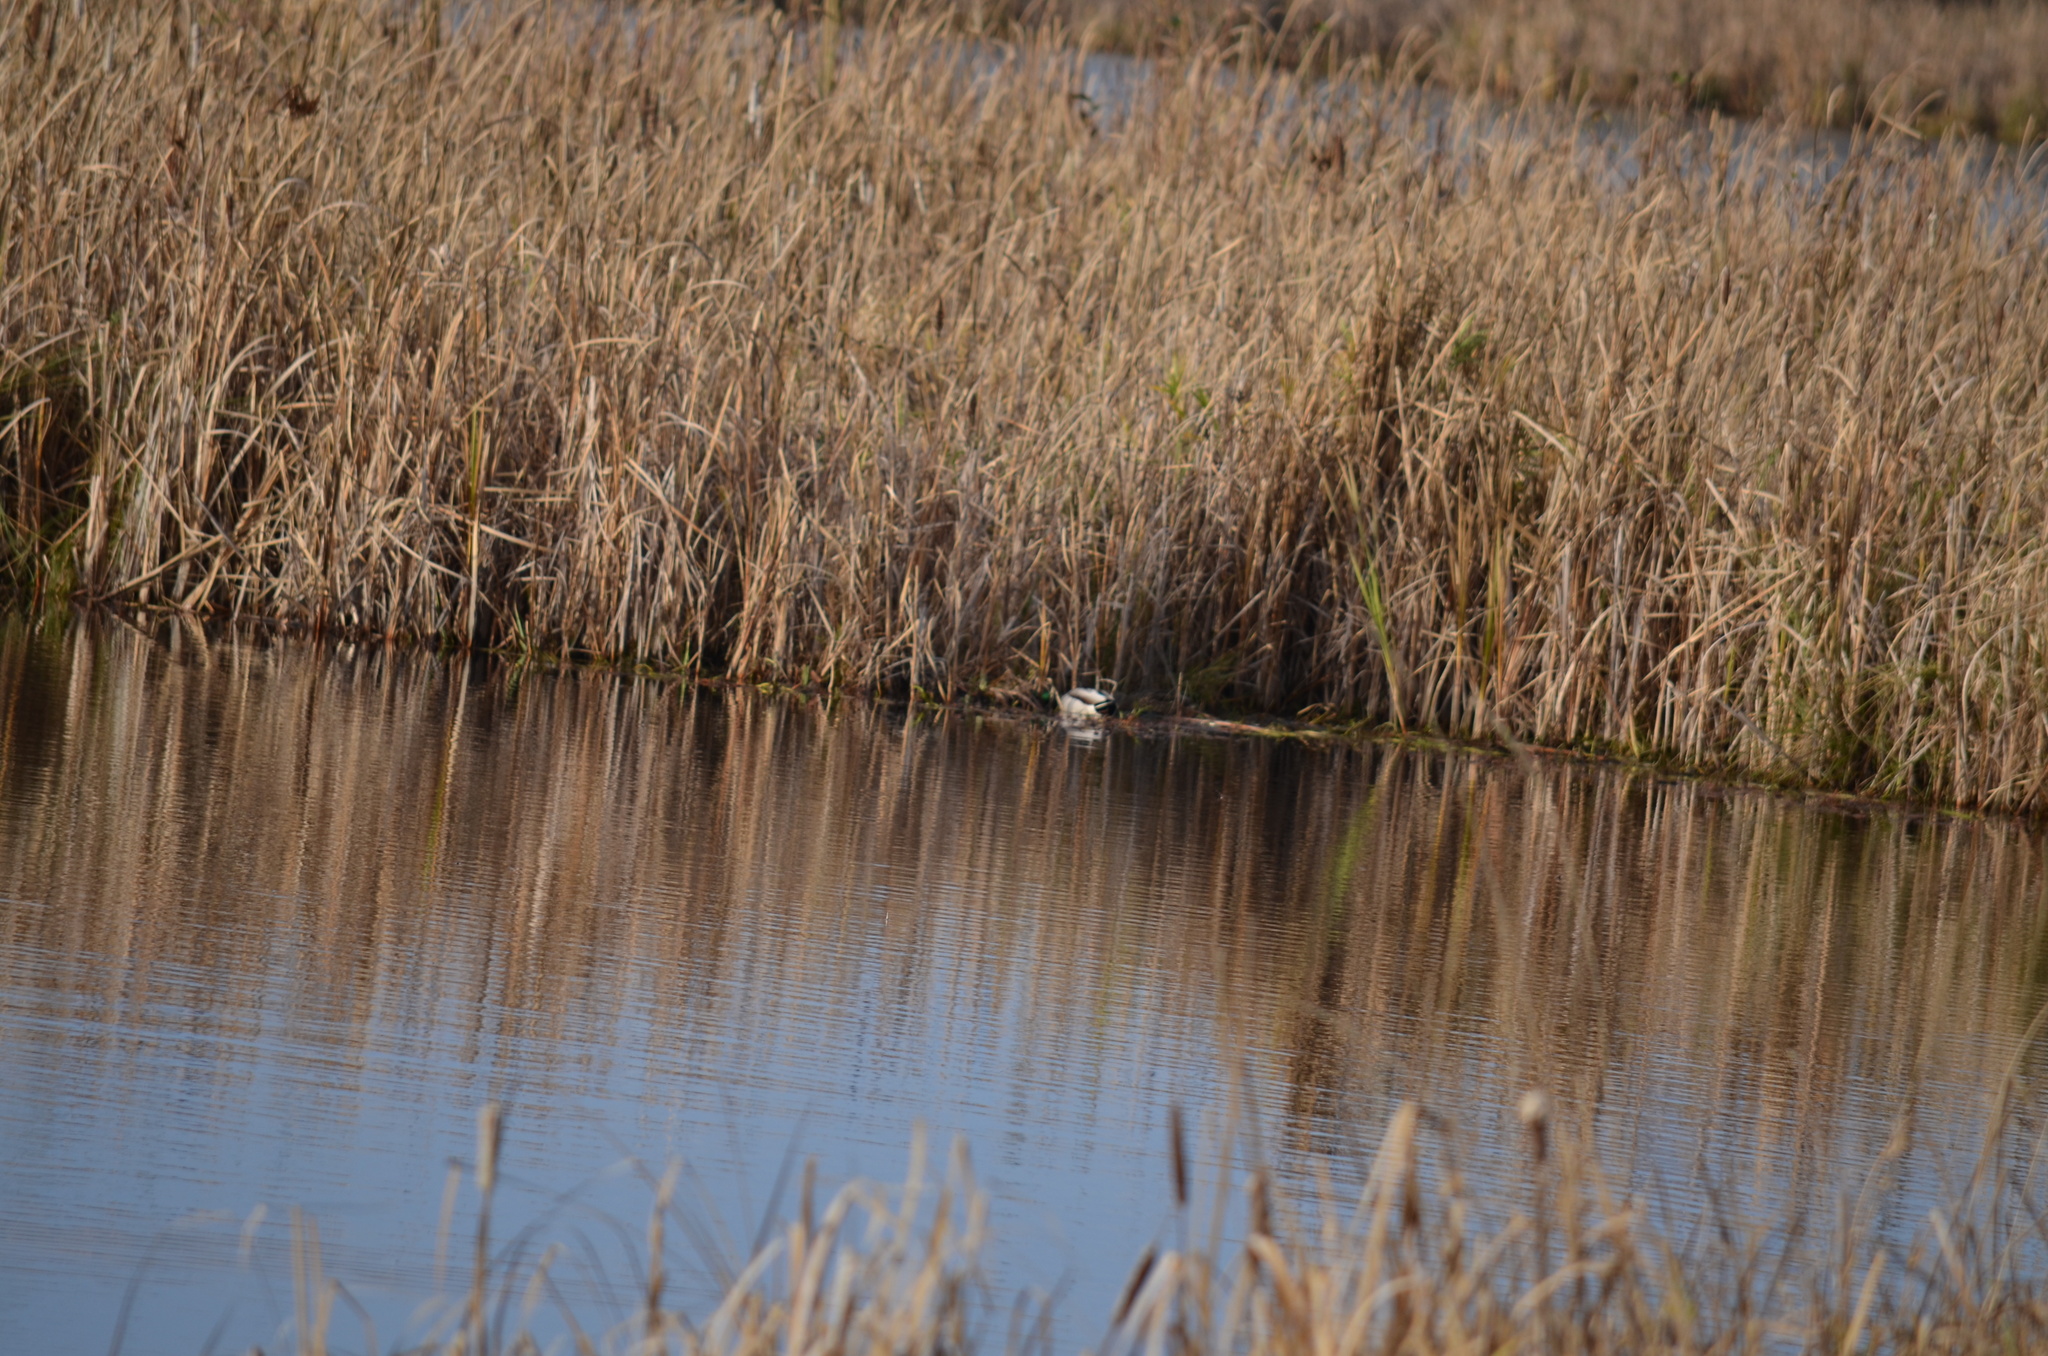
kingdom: Animalia
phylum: Chordata
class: Aves
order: Anseriformes
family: Anatidae
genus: Anas
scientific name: Anas platyrhynchos
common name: Mallard
